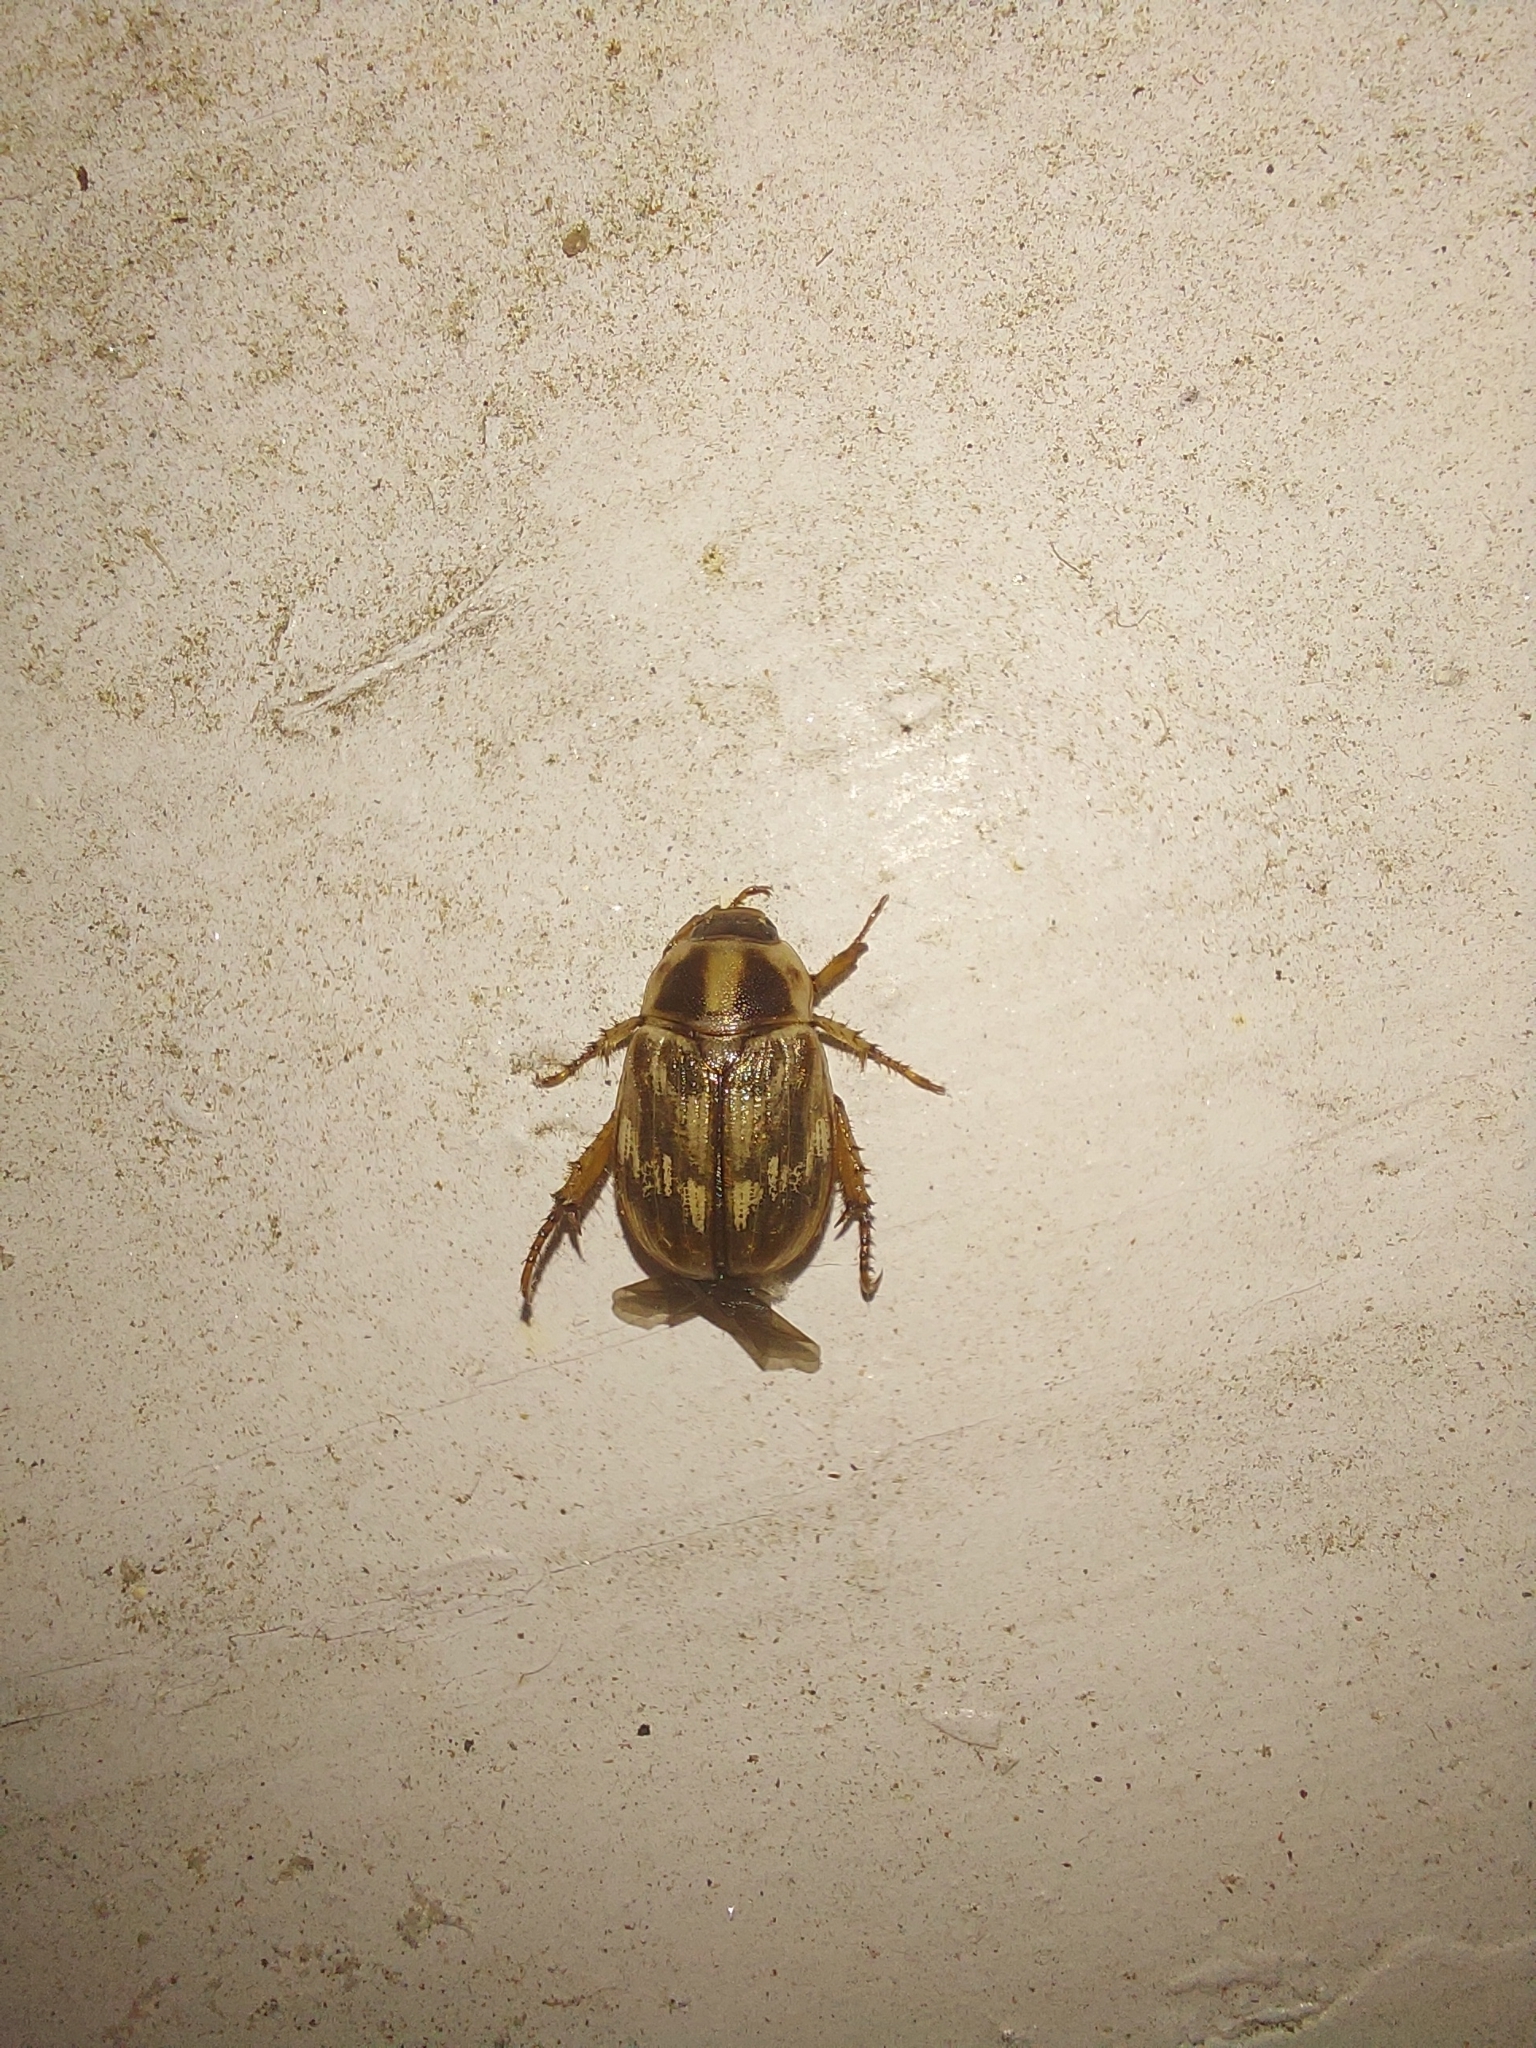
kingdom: Animalia
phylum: Arthropoda
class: Insecta
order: Coleoptera
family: Scarabaeidae
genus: Exomala
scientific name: Exomala orientalis
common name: Oriental beetle
